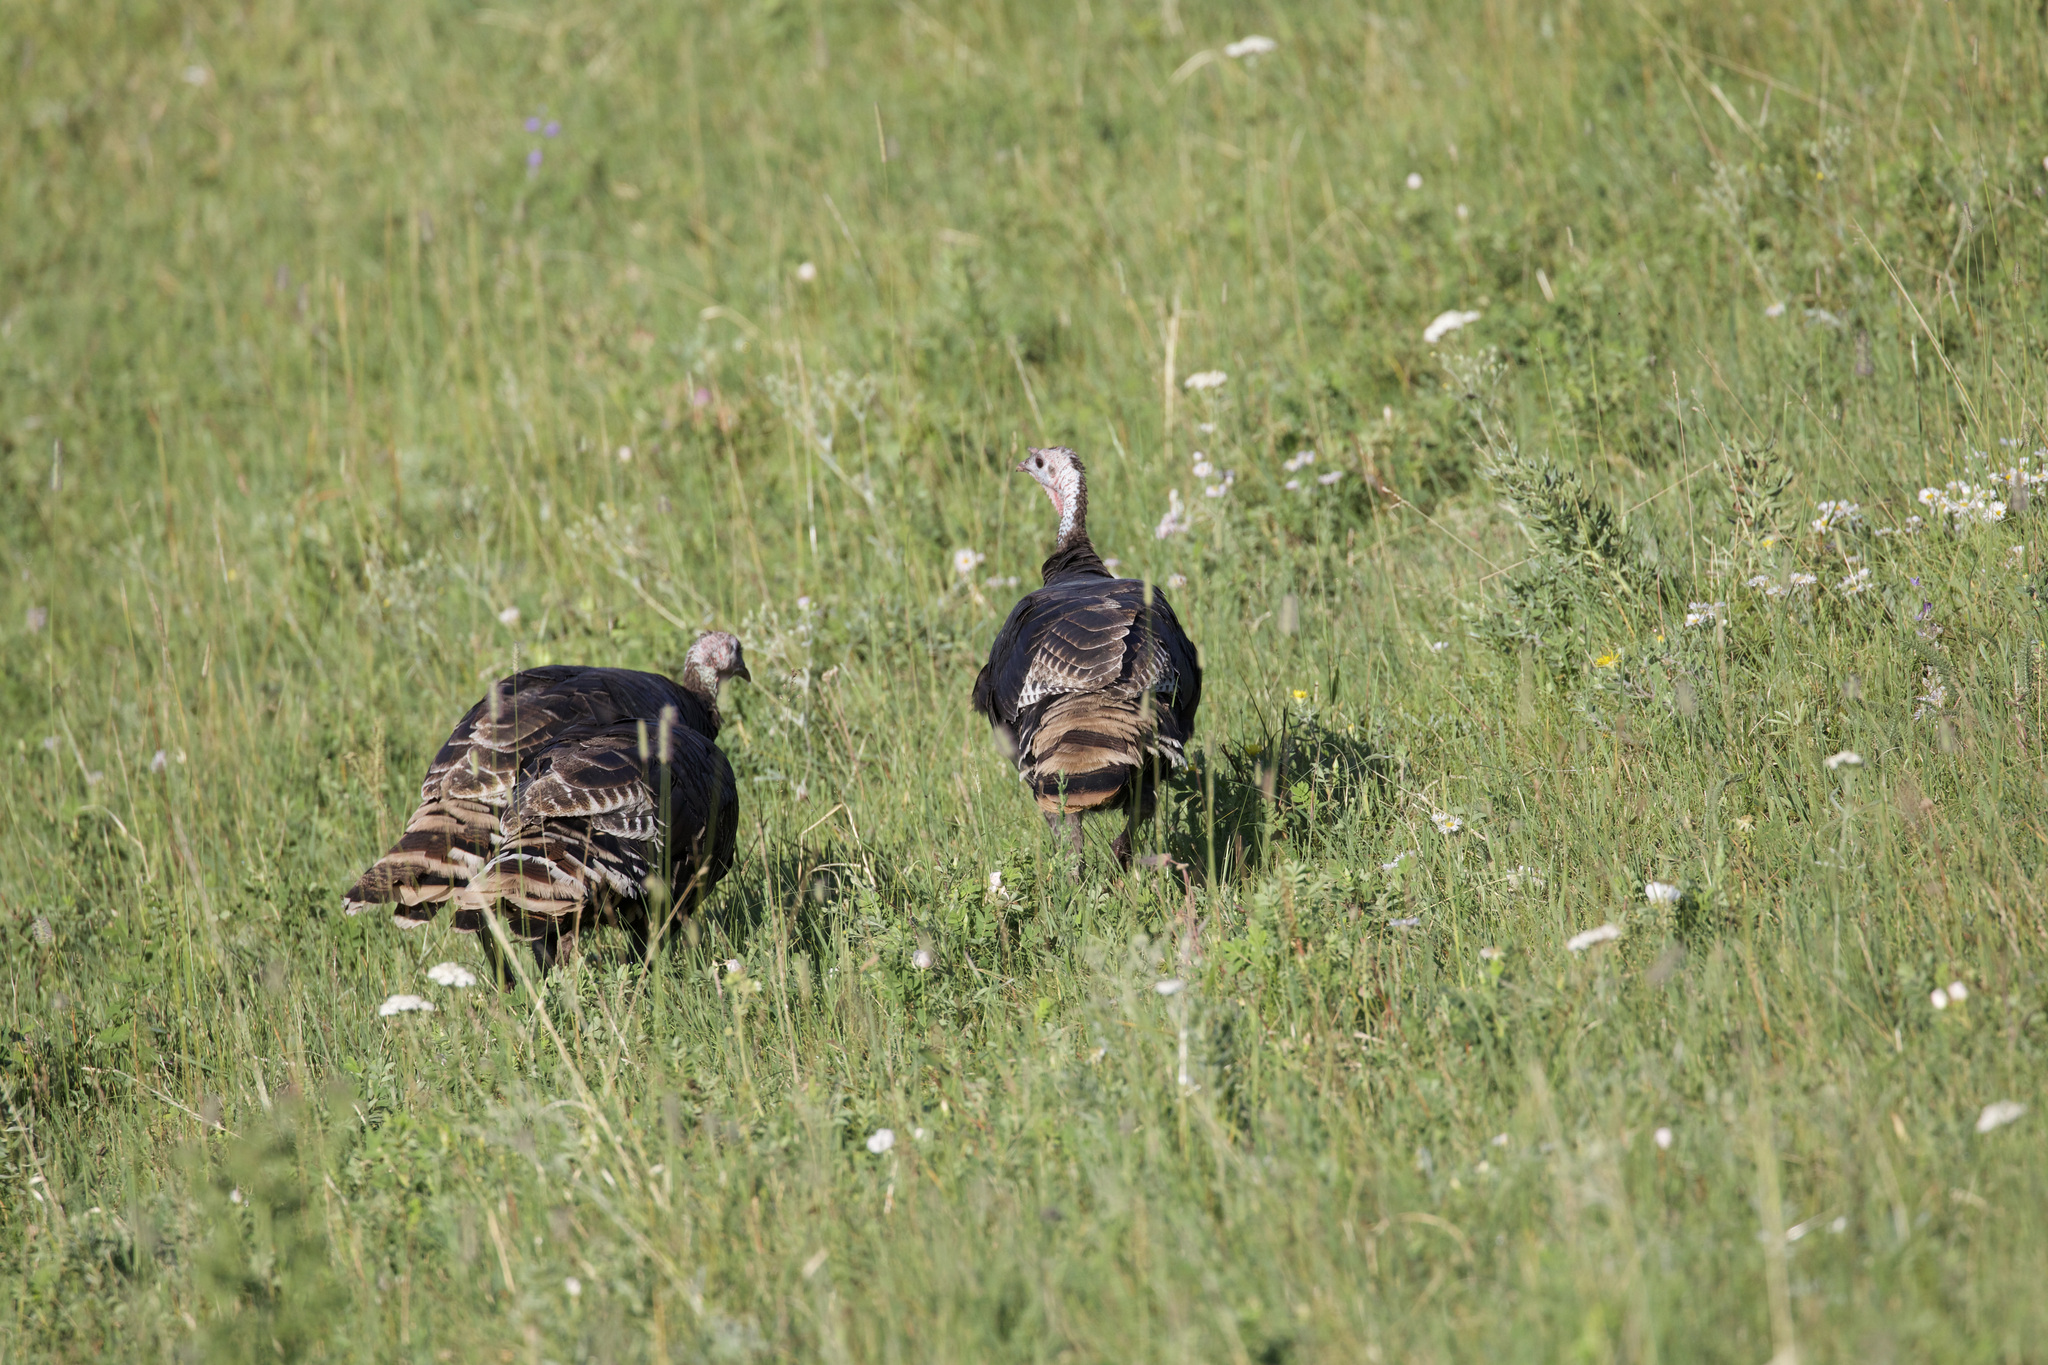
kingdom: Animalia
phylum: Chordata
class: Aves
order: Galliformes
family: Phasianidae
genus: Meleagris
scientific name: Meleagris gallopavo
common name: Wild turkey
